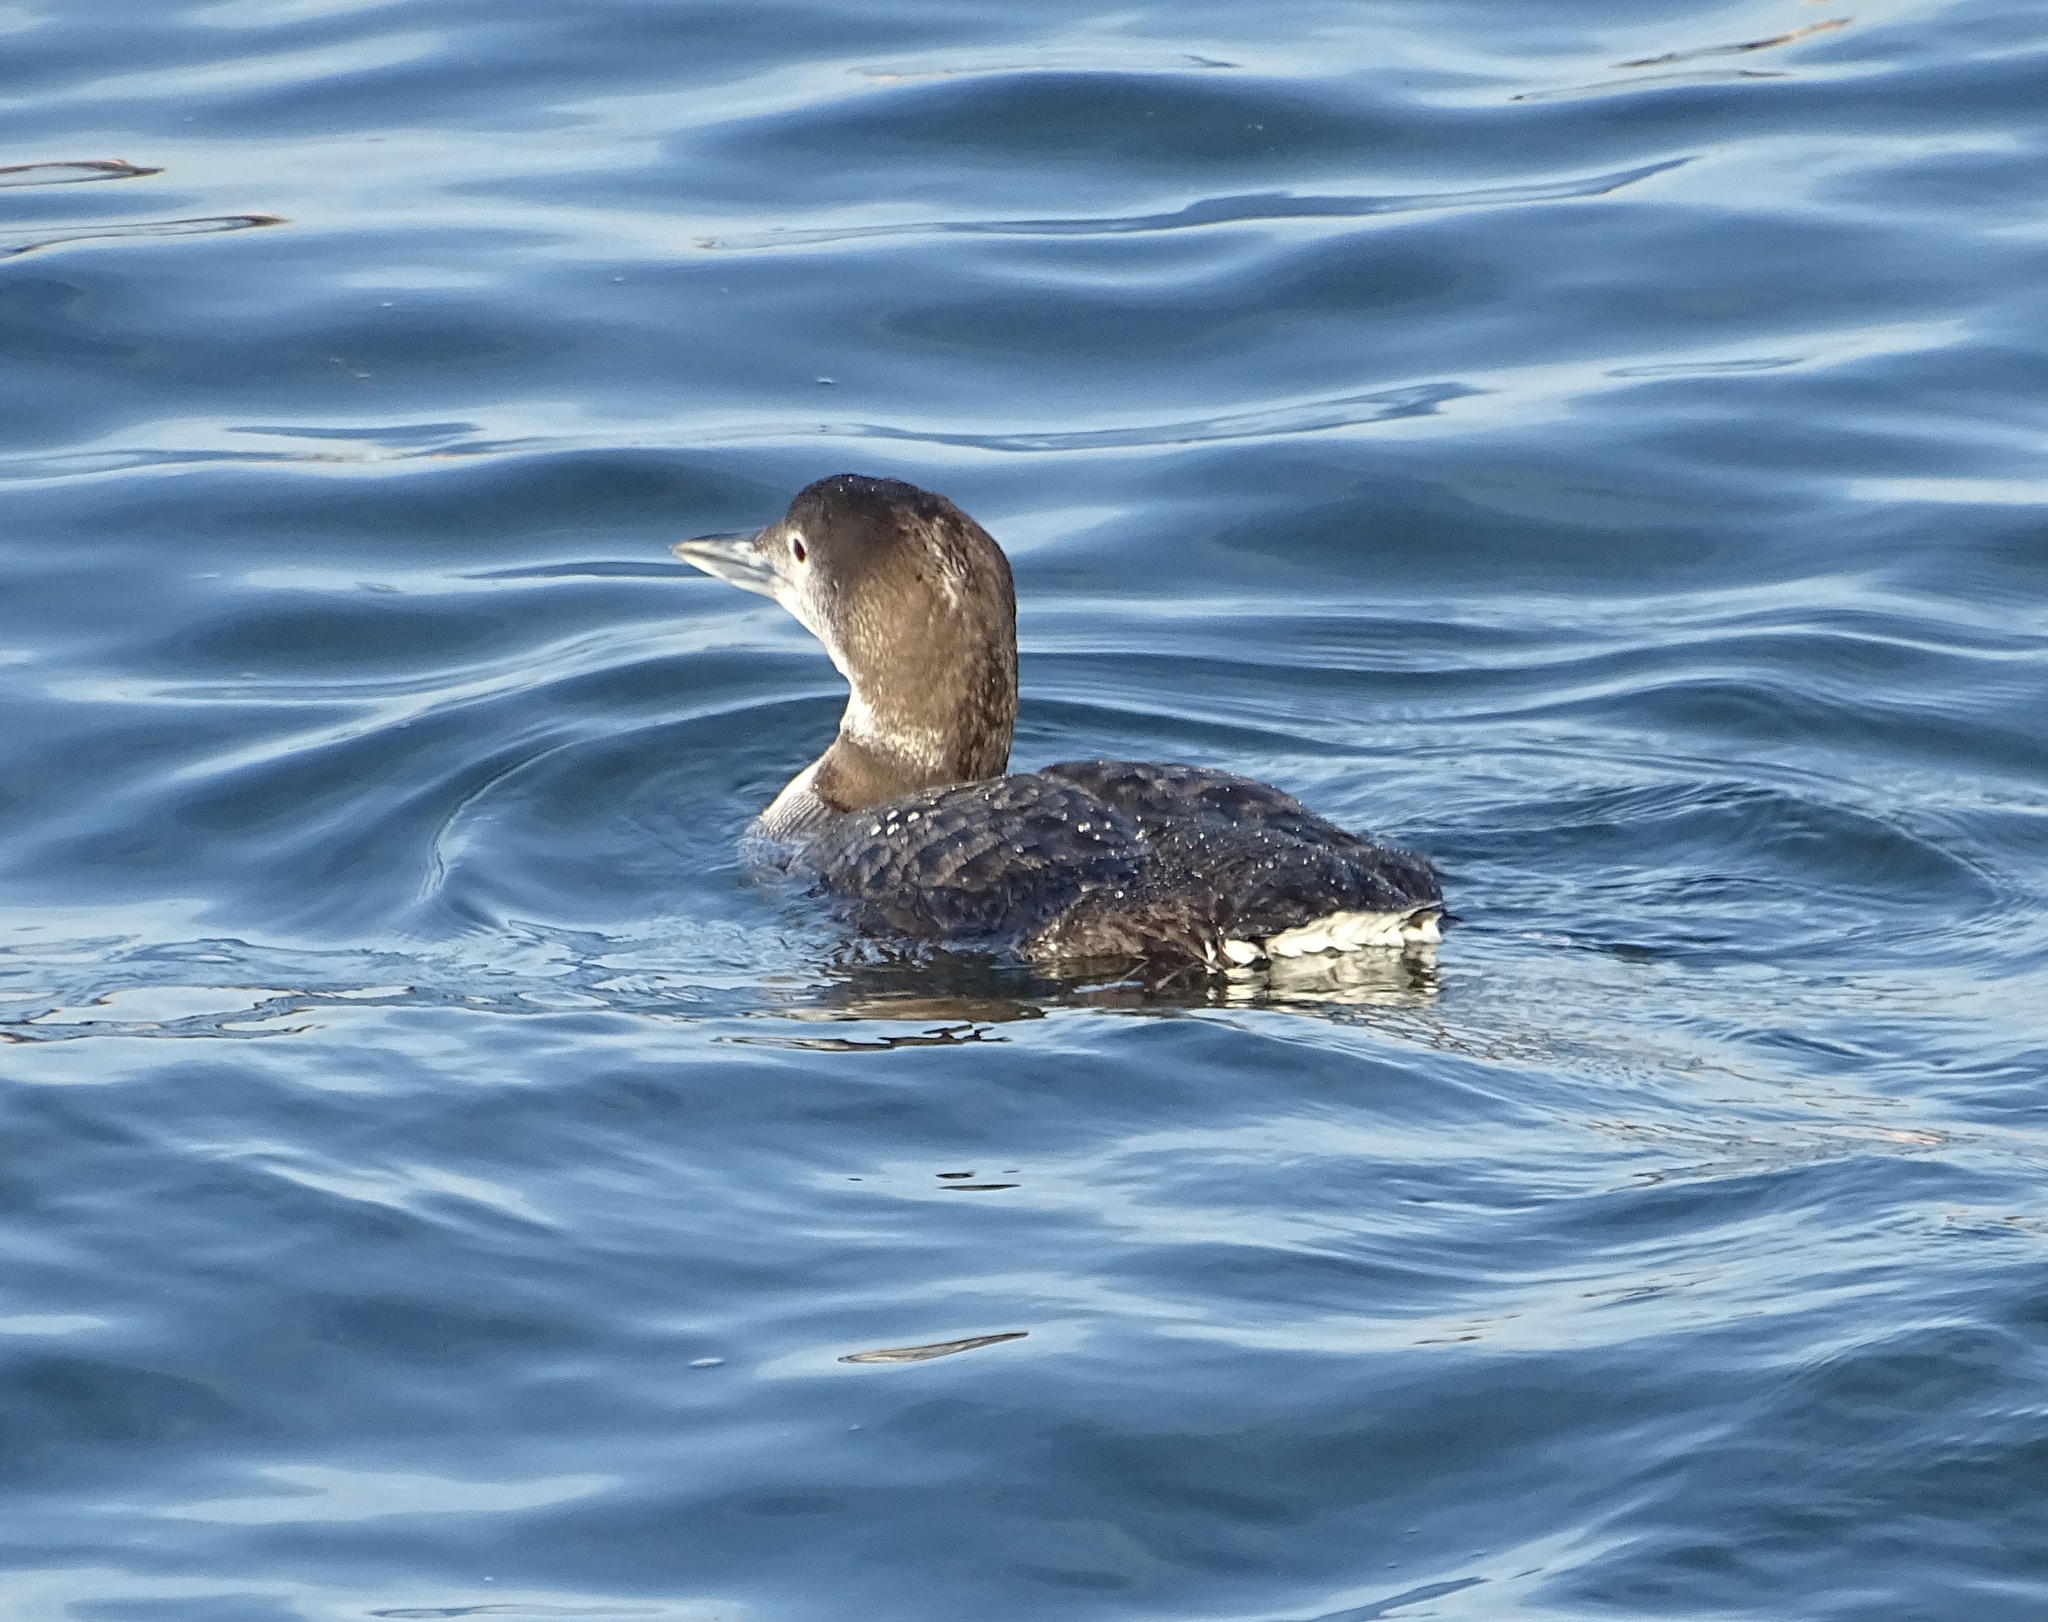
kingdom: Animalia
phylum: Chordata
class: Aves
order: Gaviiformes
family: Gaviidae
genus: Gavia
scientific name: Gavia immer
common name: Common loon
